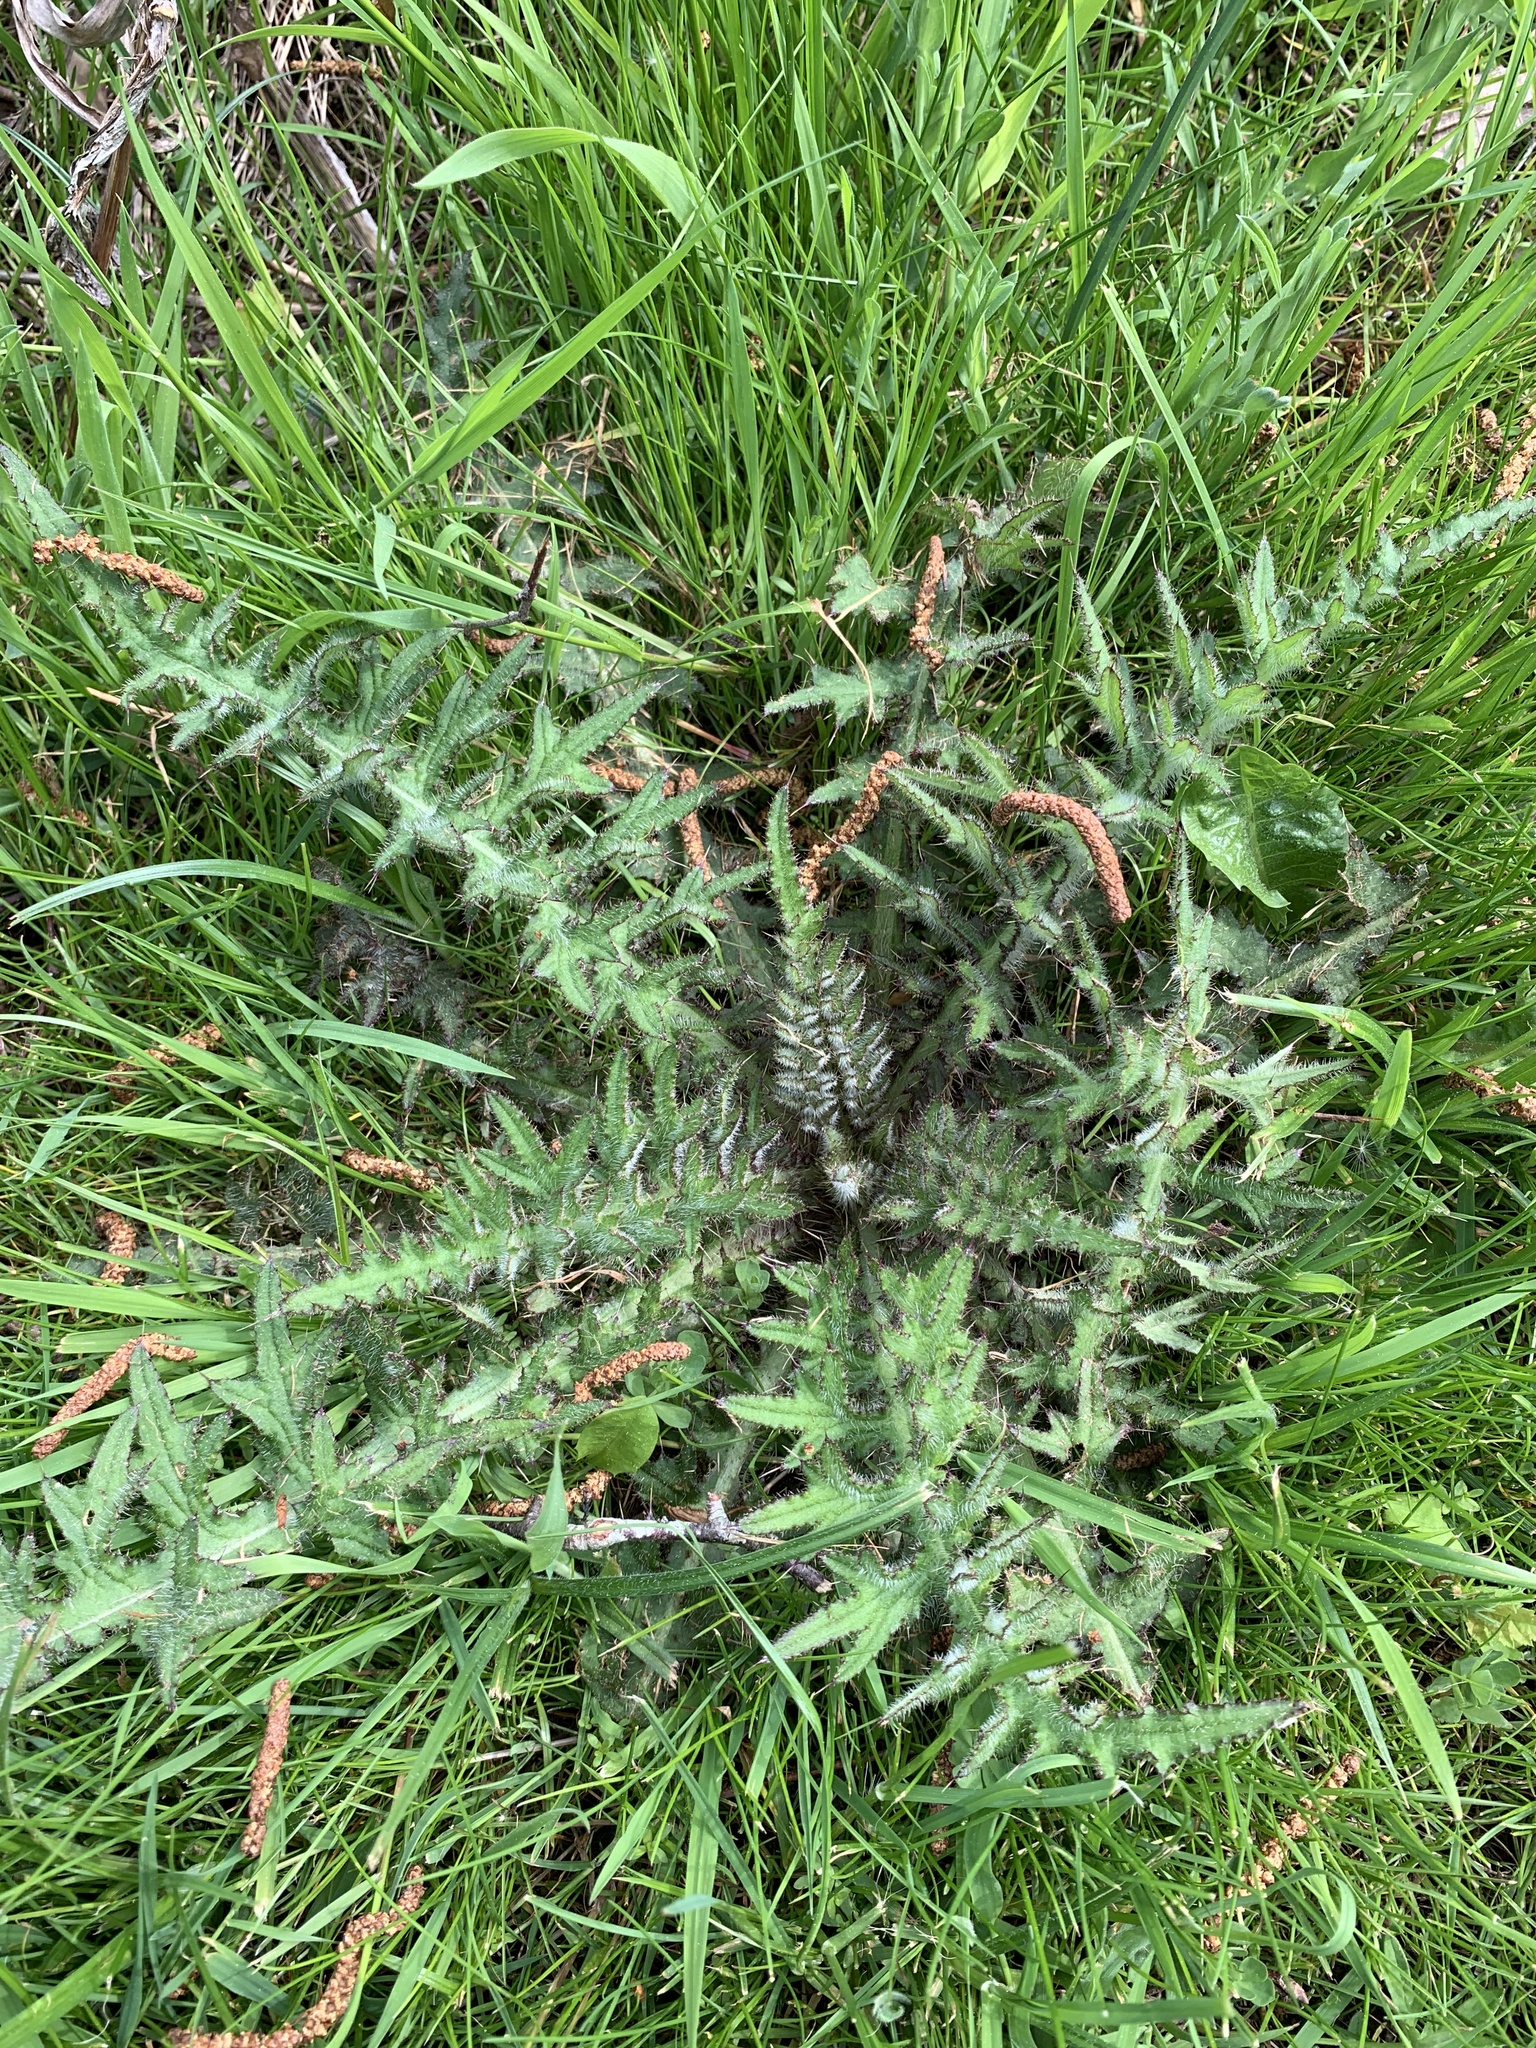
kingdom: Plantae
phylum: Tracheophyta
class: Magnoliopsida
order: Asterales
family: Asteraceae
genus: Cirsium
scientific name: Cirsium palustre
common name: Marsh thistle
